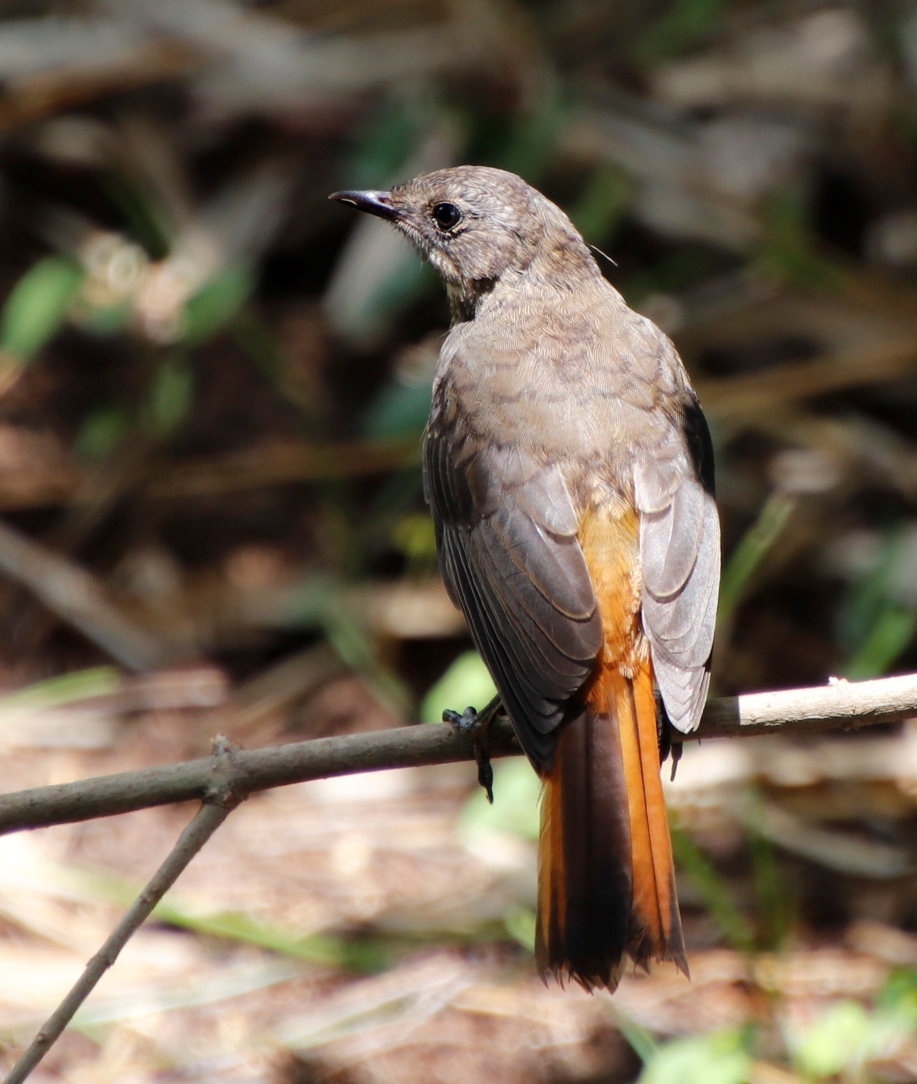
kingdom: Animalia
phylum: Chordata
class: Aves
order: Passeriformes
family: Muscicapidae
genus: Cossypha
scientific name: Cossypha caffra
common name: Cape robin-chat
